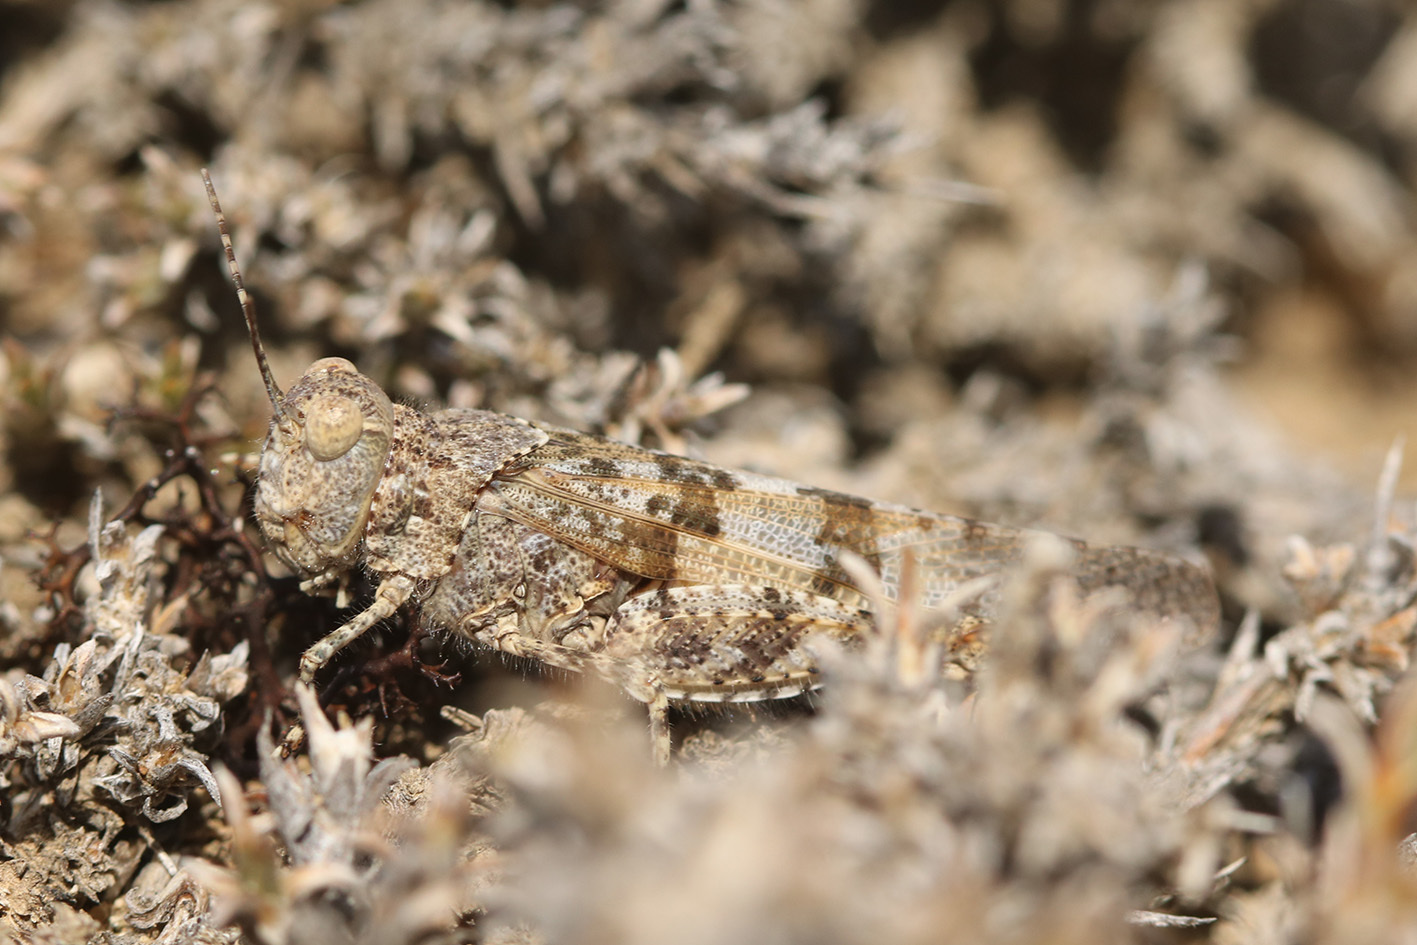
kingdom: Animalia
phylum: Arthropoda
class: Insecta
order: Orthoptera
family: Acrididae
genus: Trimerotropis
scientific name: Trimerotropis pallidipennis
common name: Pallid-winged grasshopper
